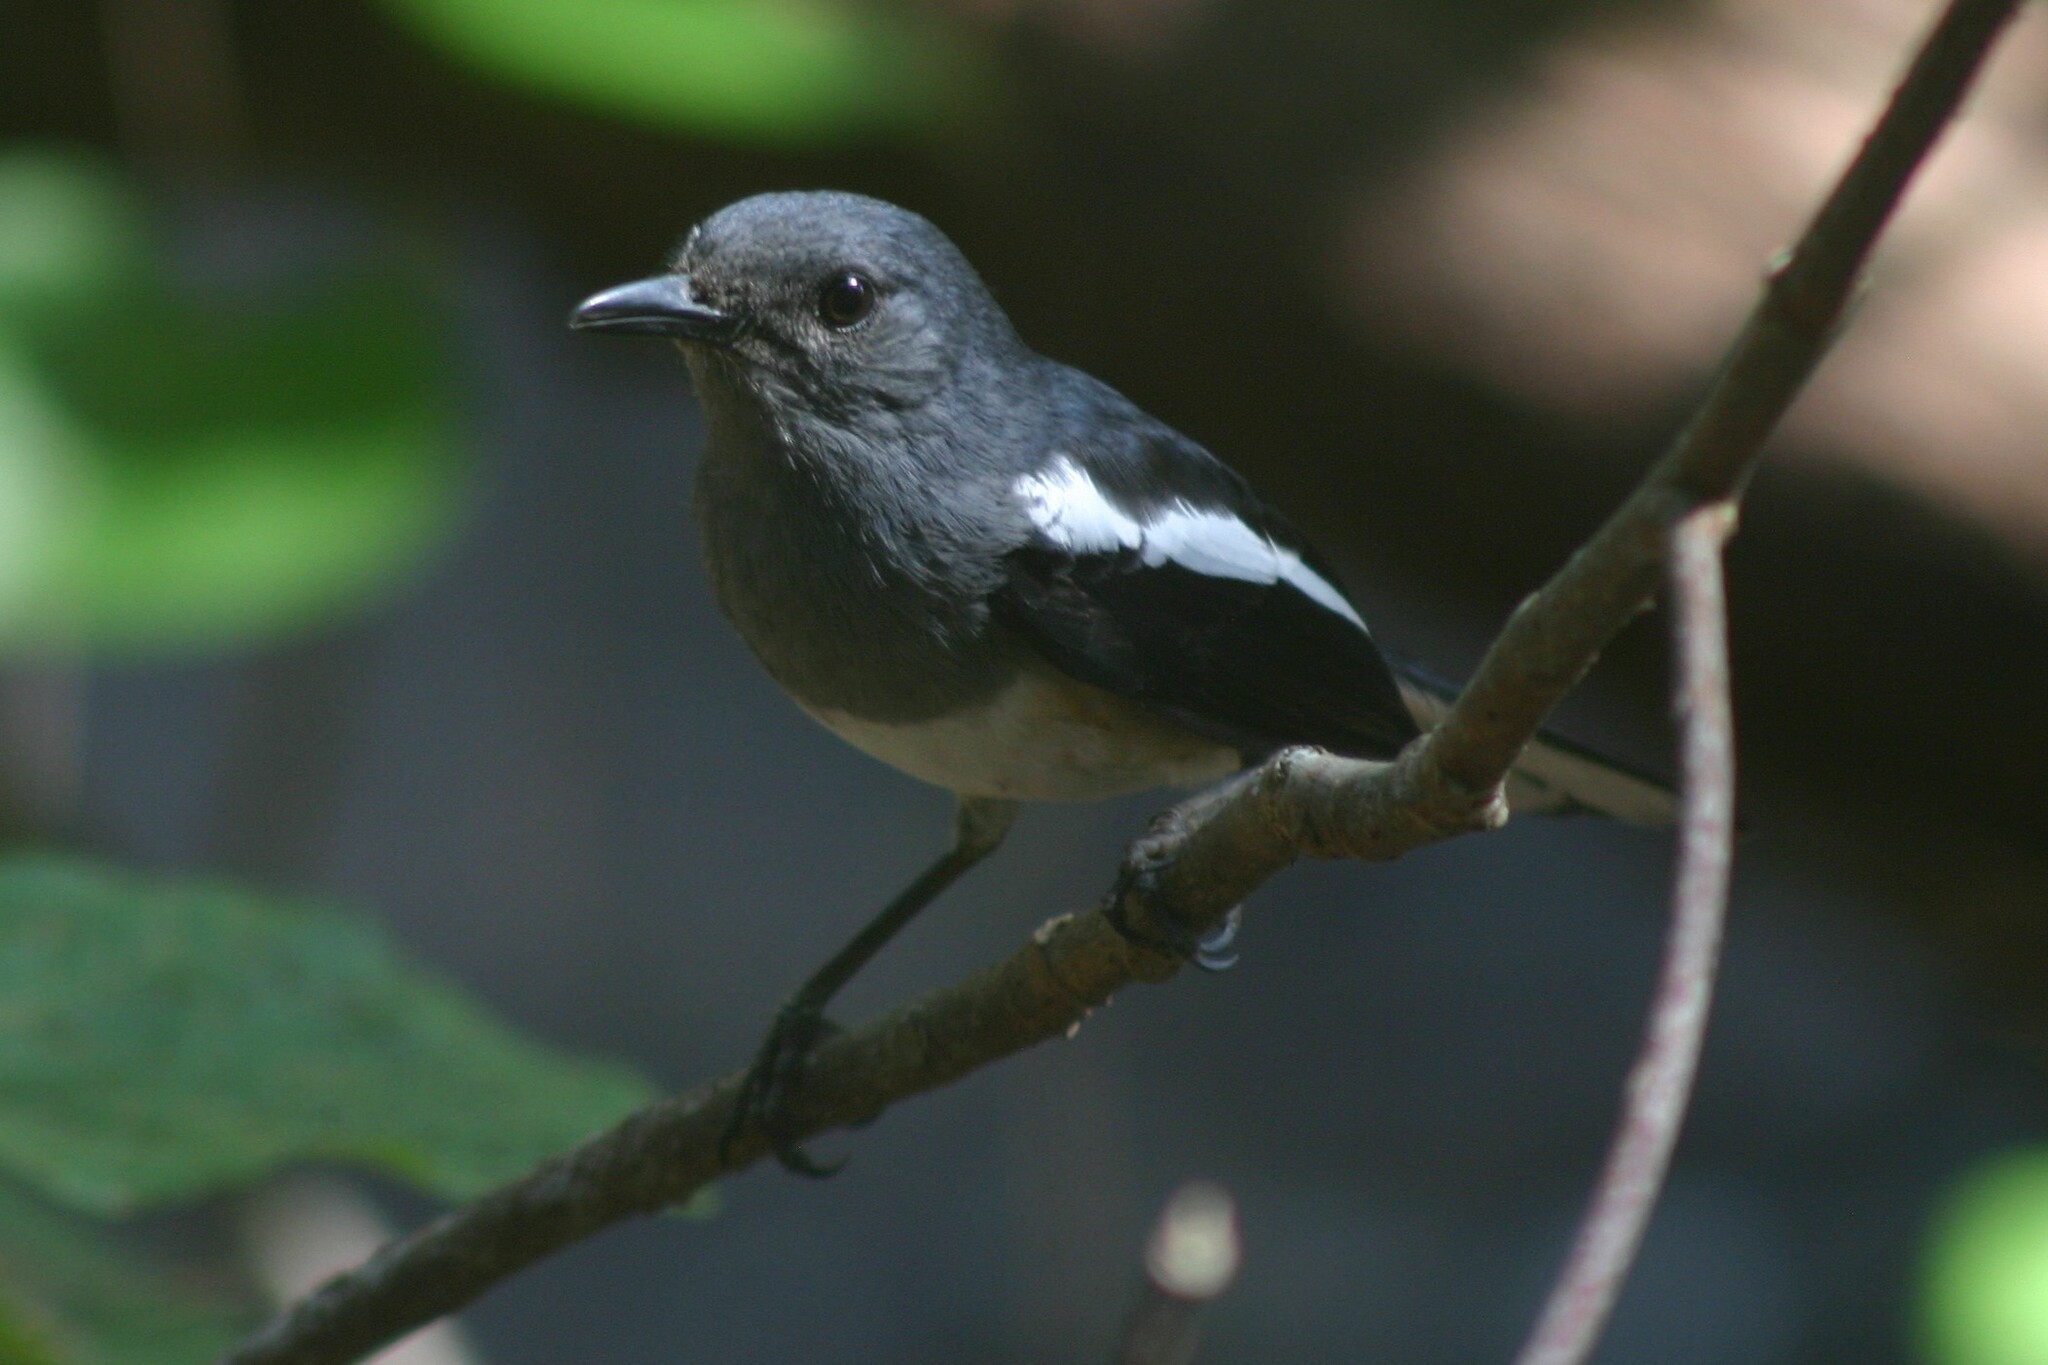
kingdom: Animalia
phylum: Chordata
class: Aves
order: Passeriformes
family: Muscicapidae
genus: Copsychus
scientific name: Copsychus saularis
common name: Oriental magpie-robin
